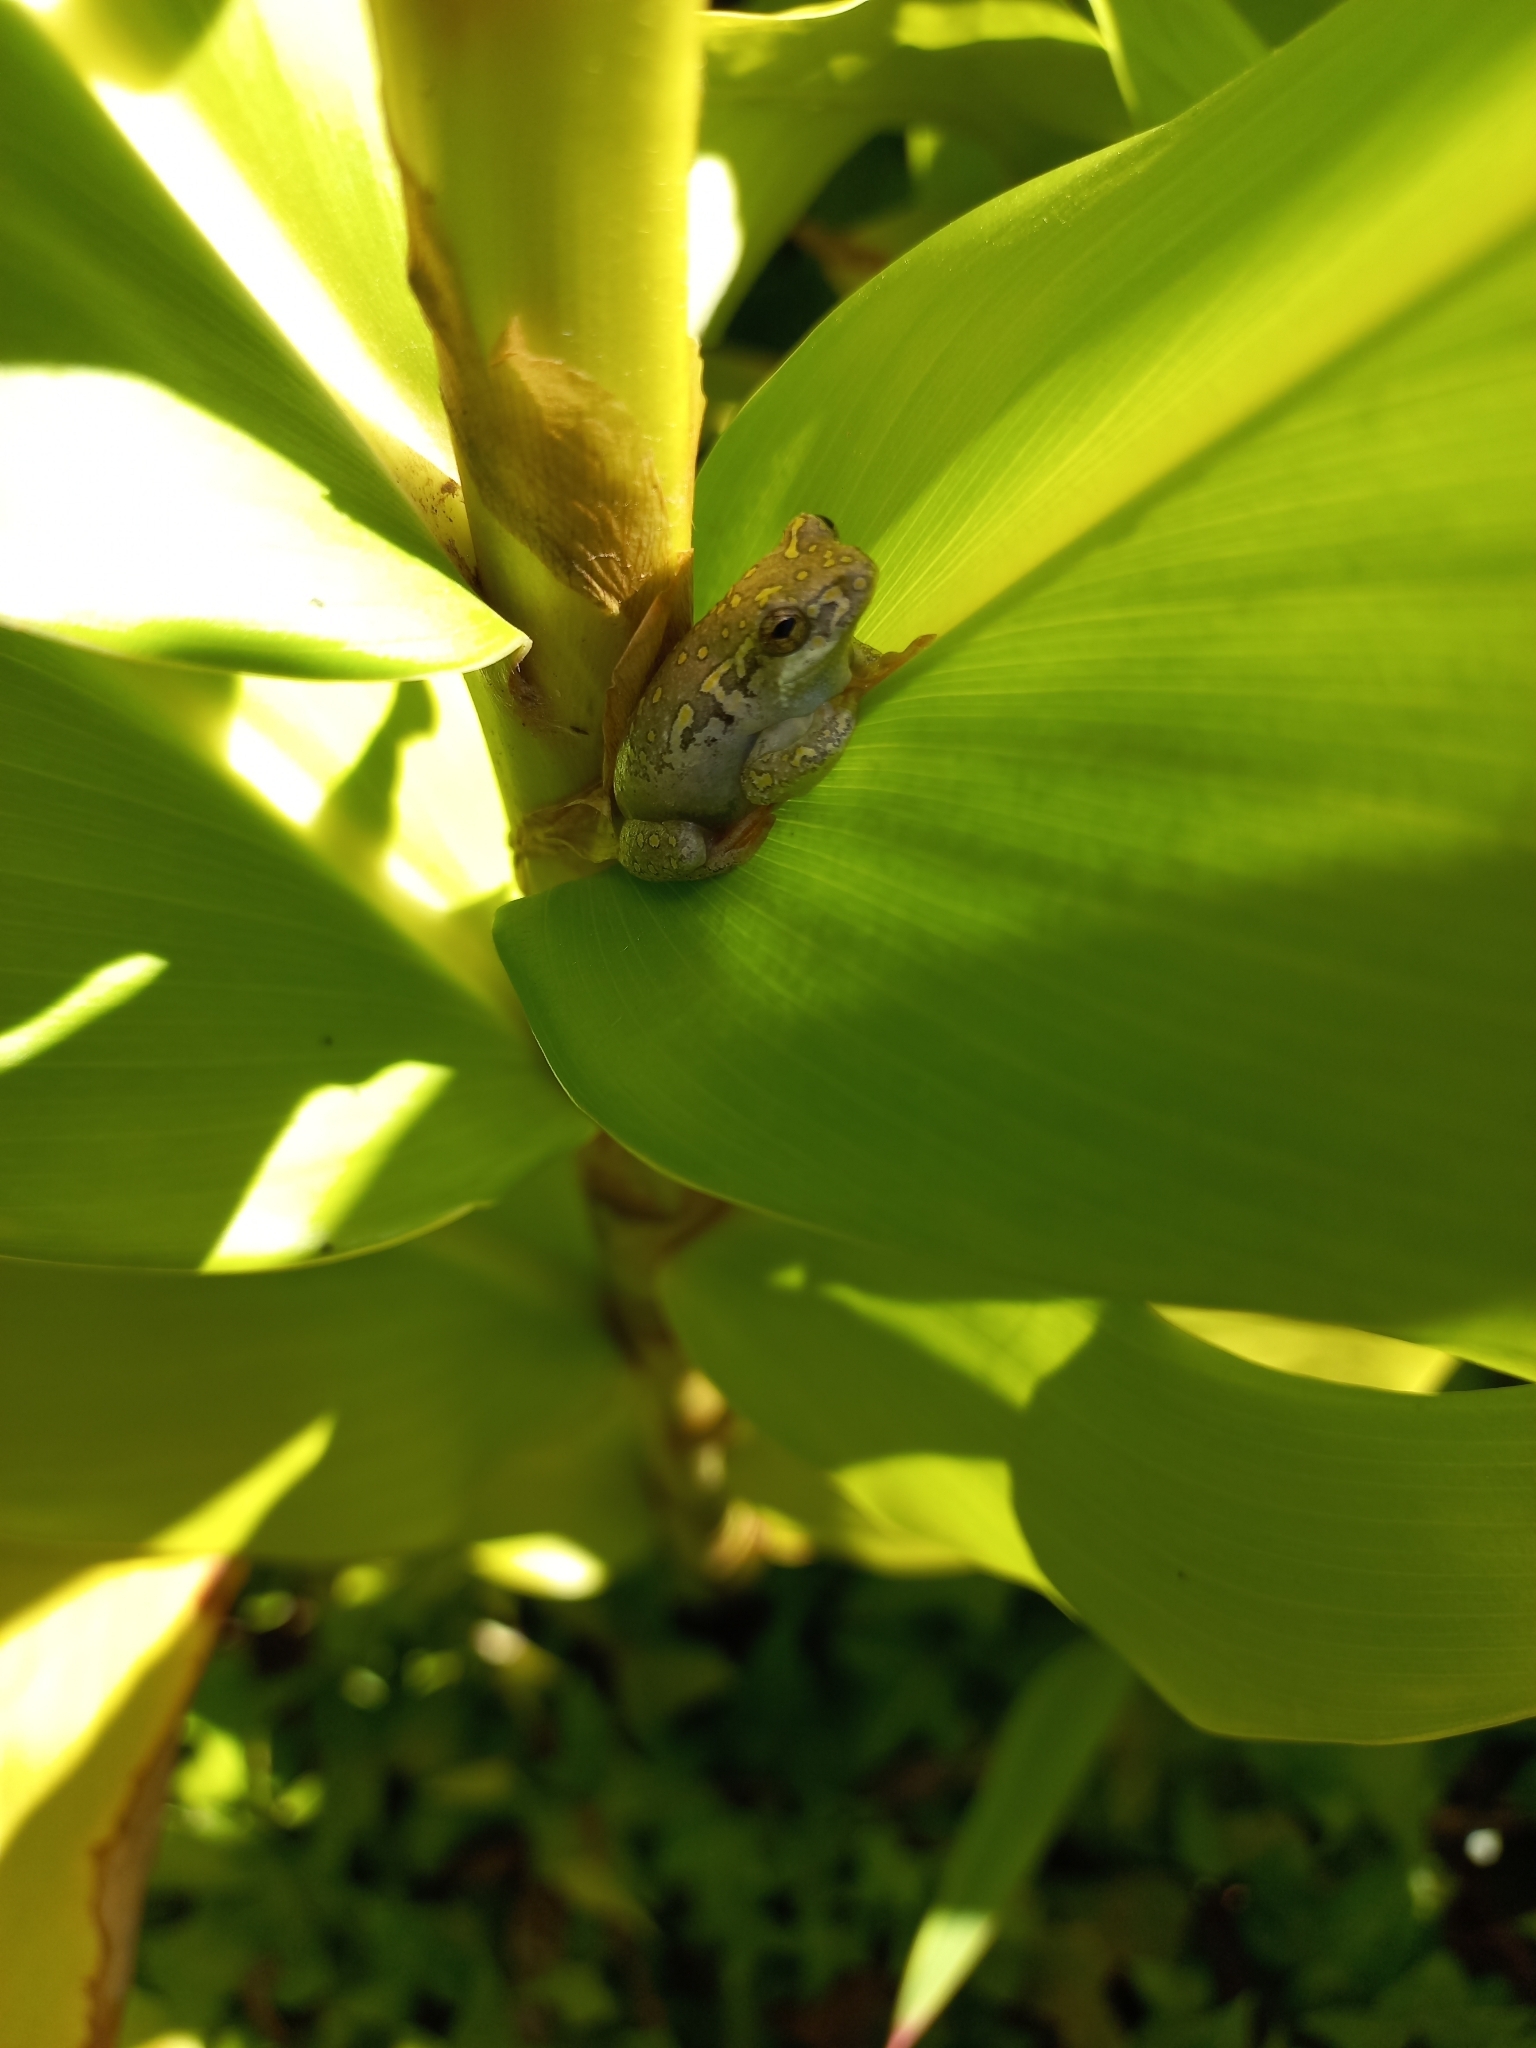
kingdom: Animalia
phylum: Chordata
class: Amphibia
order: Anura
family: Hyperoliidae
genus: Hyperolius
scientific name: Hyperolius marmoratus
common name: Painted reed frog
